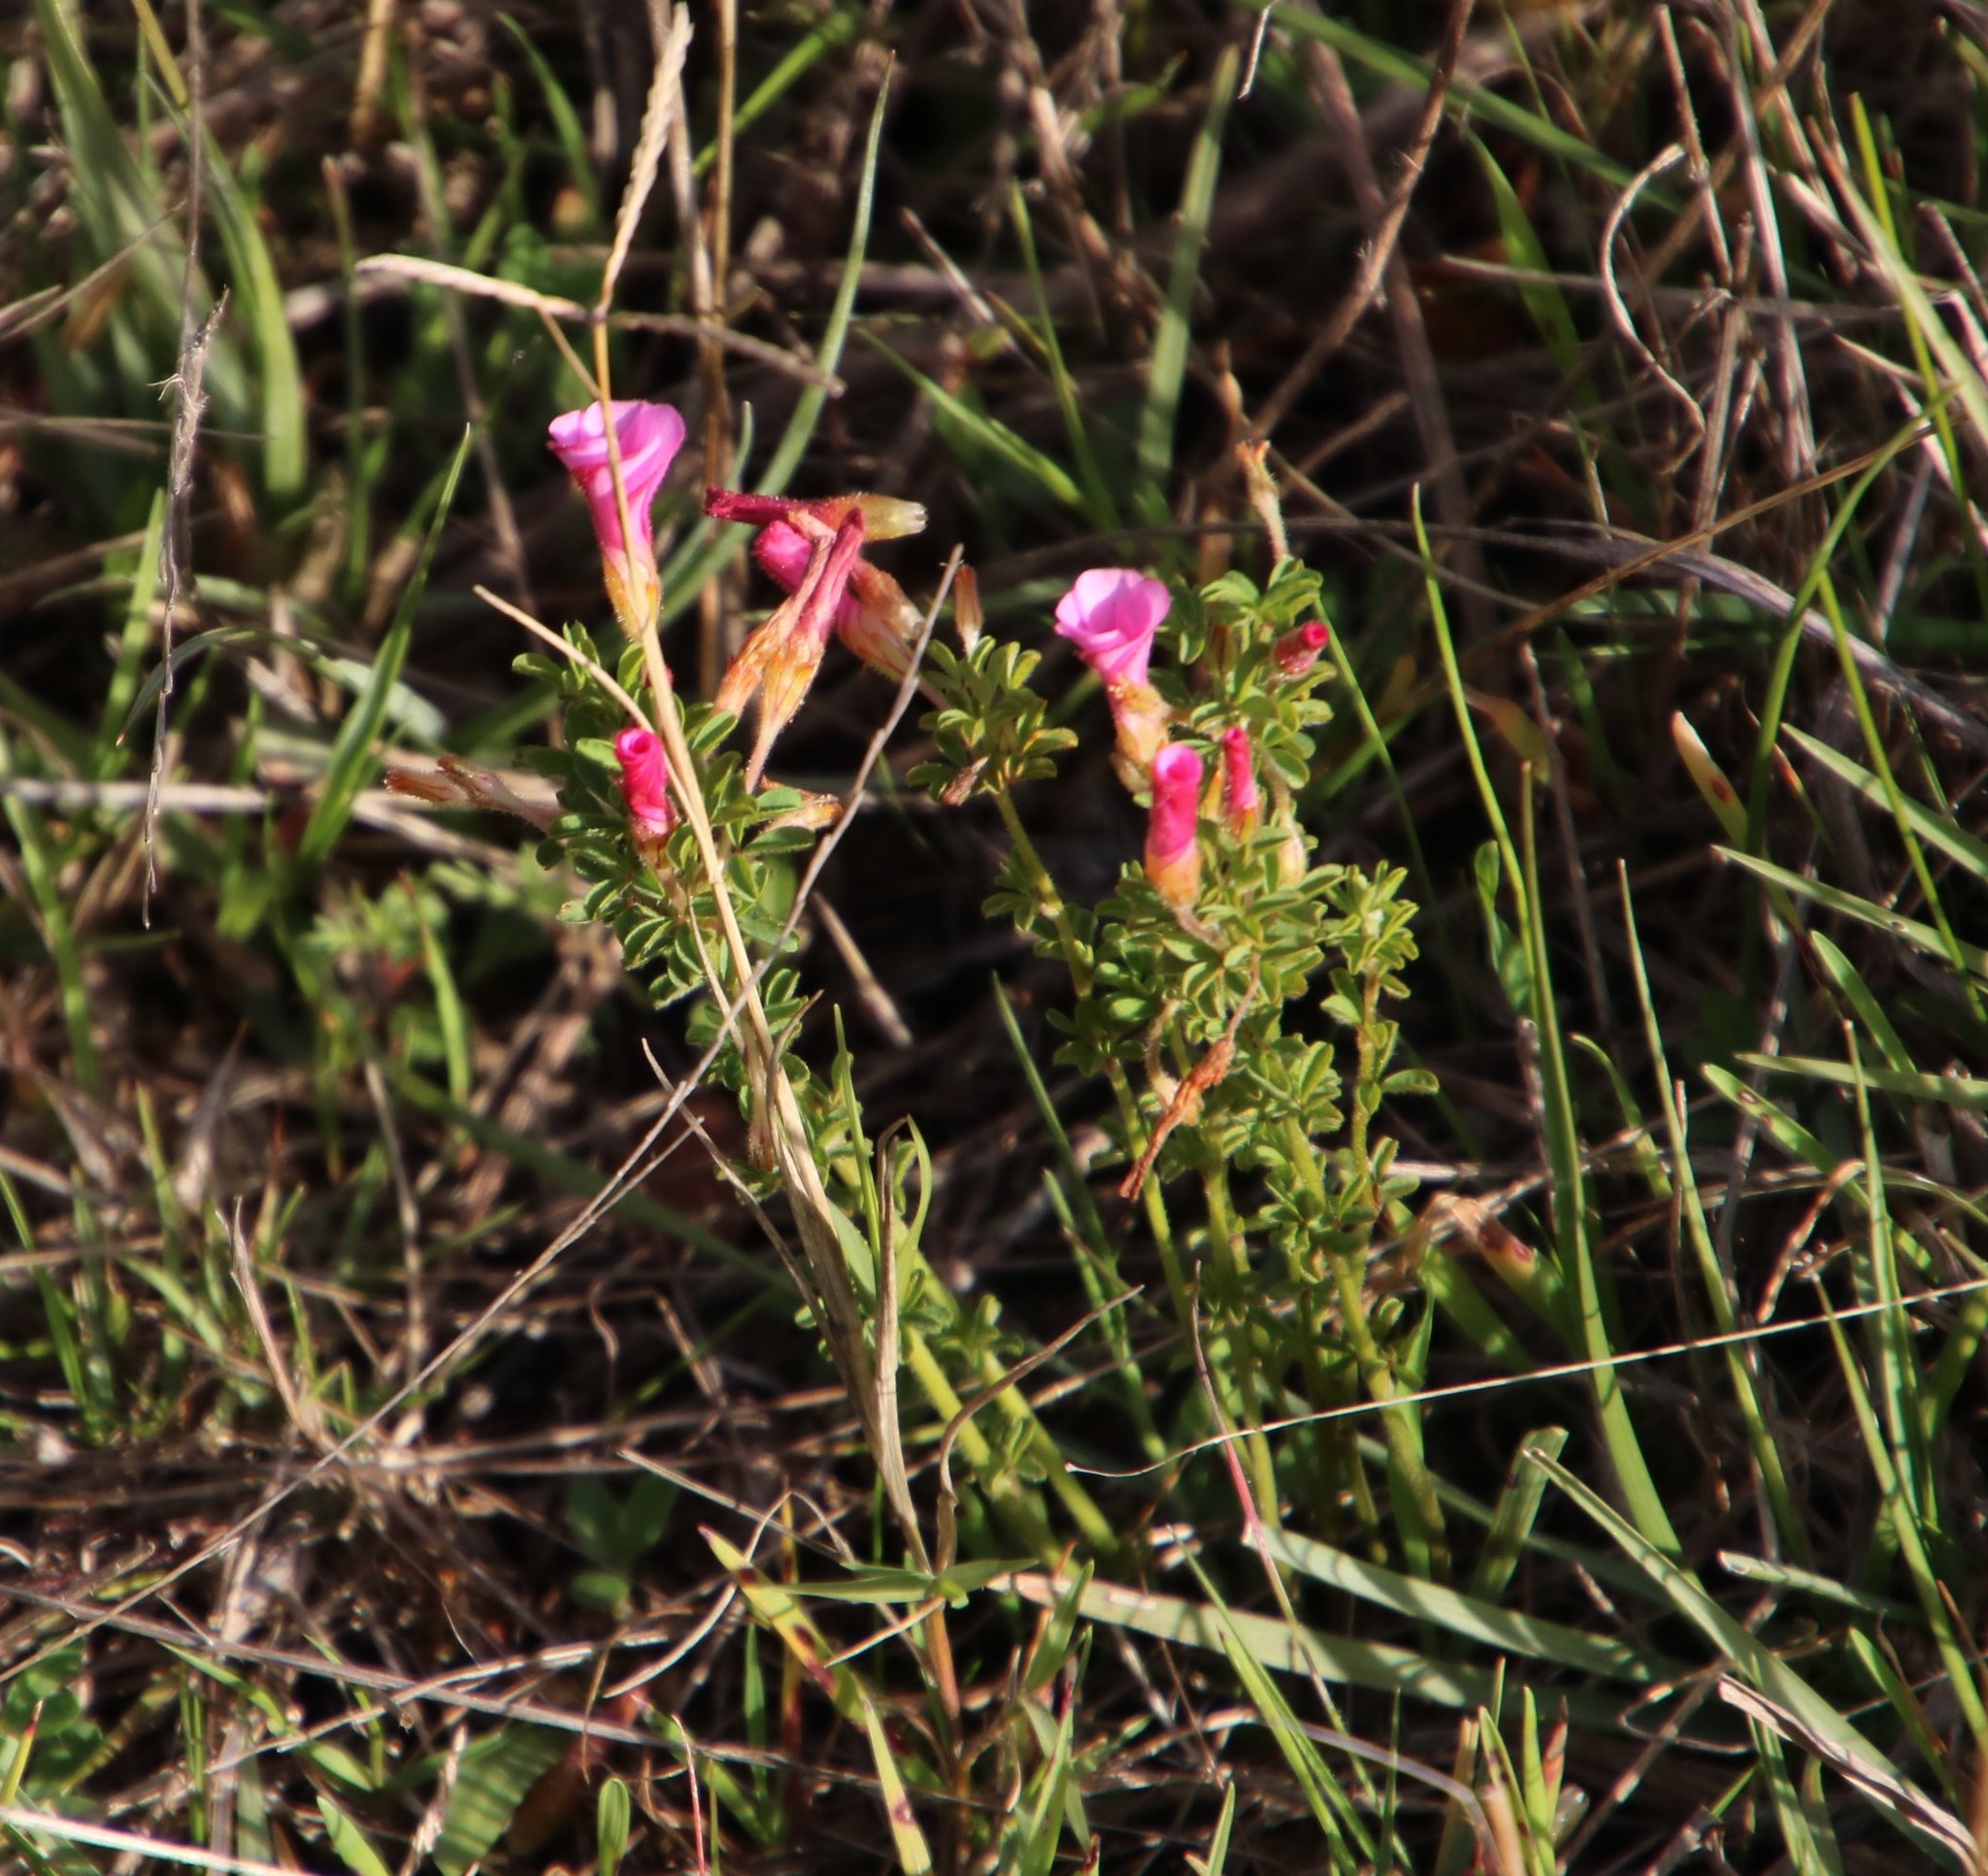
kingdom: Plantae
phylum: Tracheophyta
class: Magnoliopsida
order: Oxalidales
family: Oxalidaceae
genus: Oxalis
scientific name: Oxalis multicaulis
